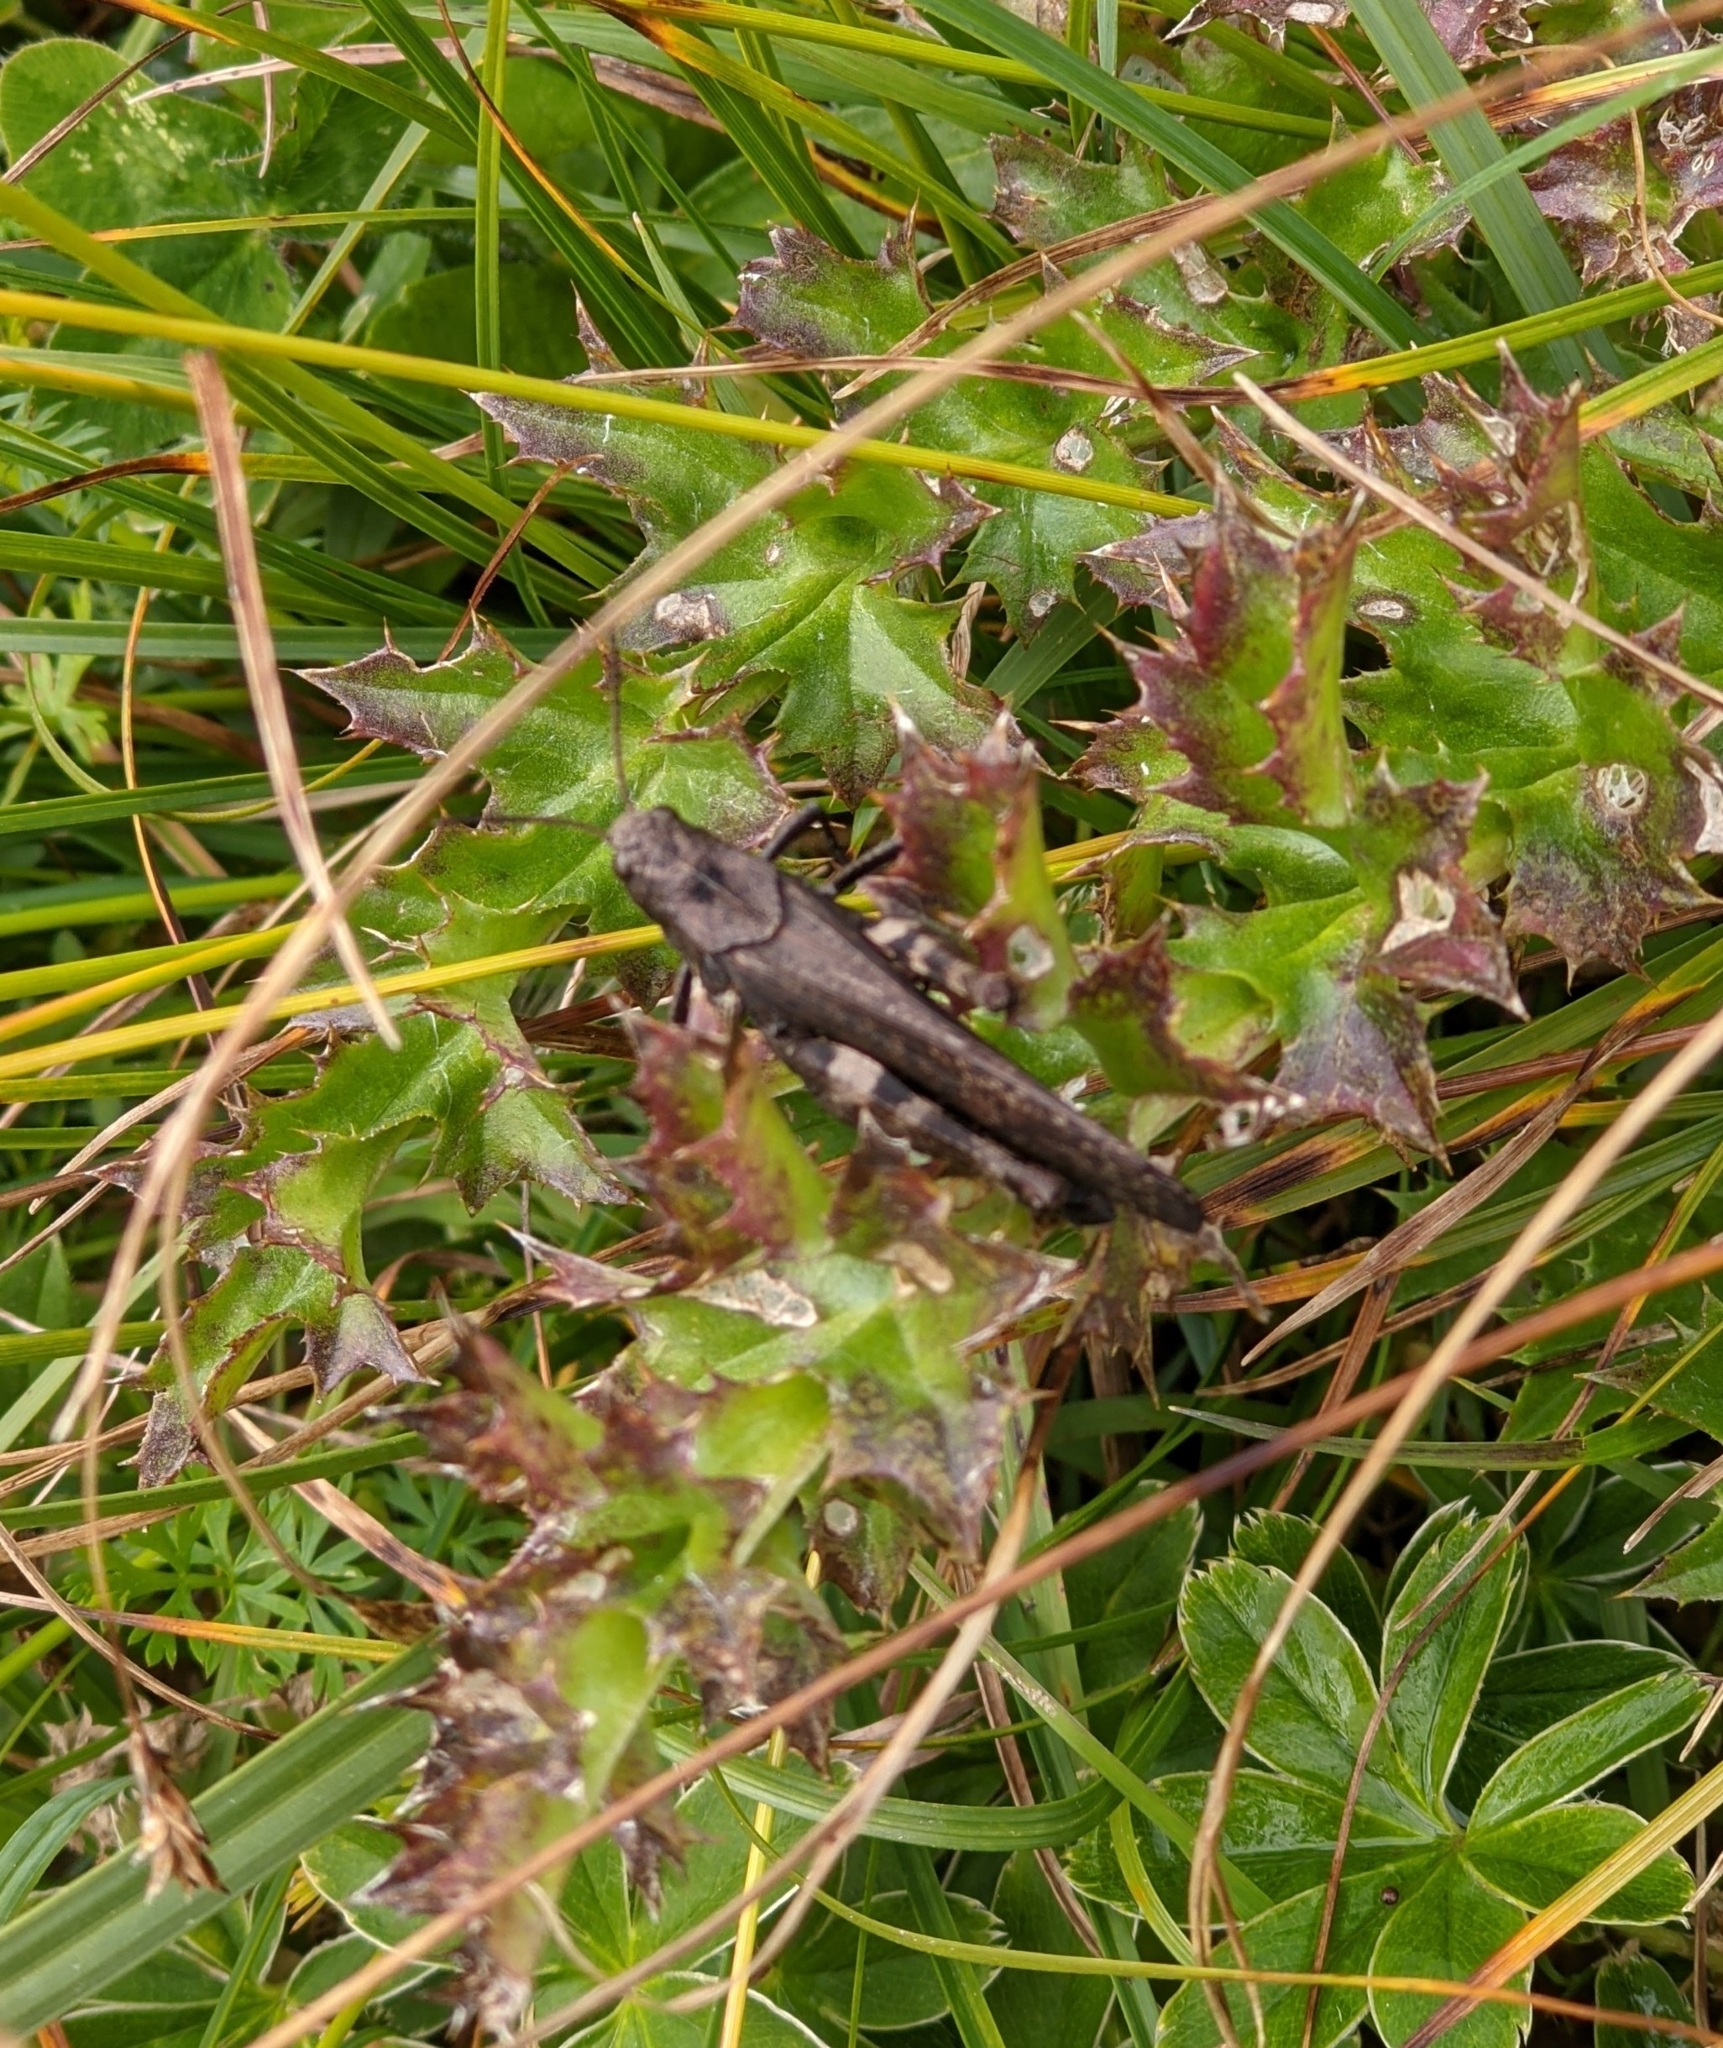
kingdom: Animalia
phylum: Arthropoda
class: Insecta
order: Orthoptera
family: Acrididae
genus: Psophus
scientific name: Psophus stridulus
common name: Rattle grasshopper
